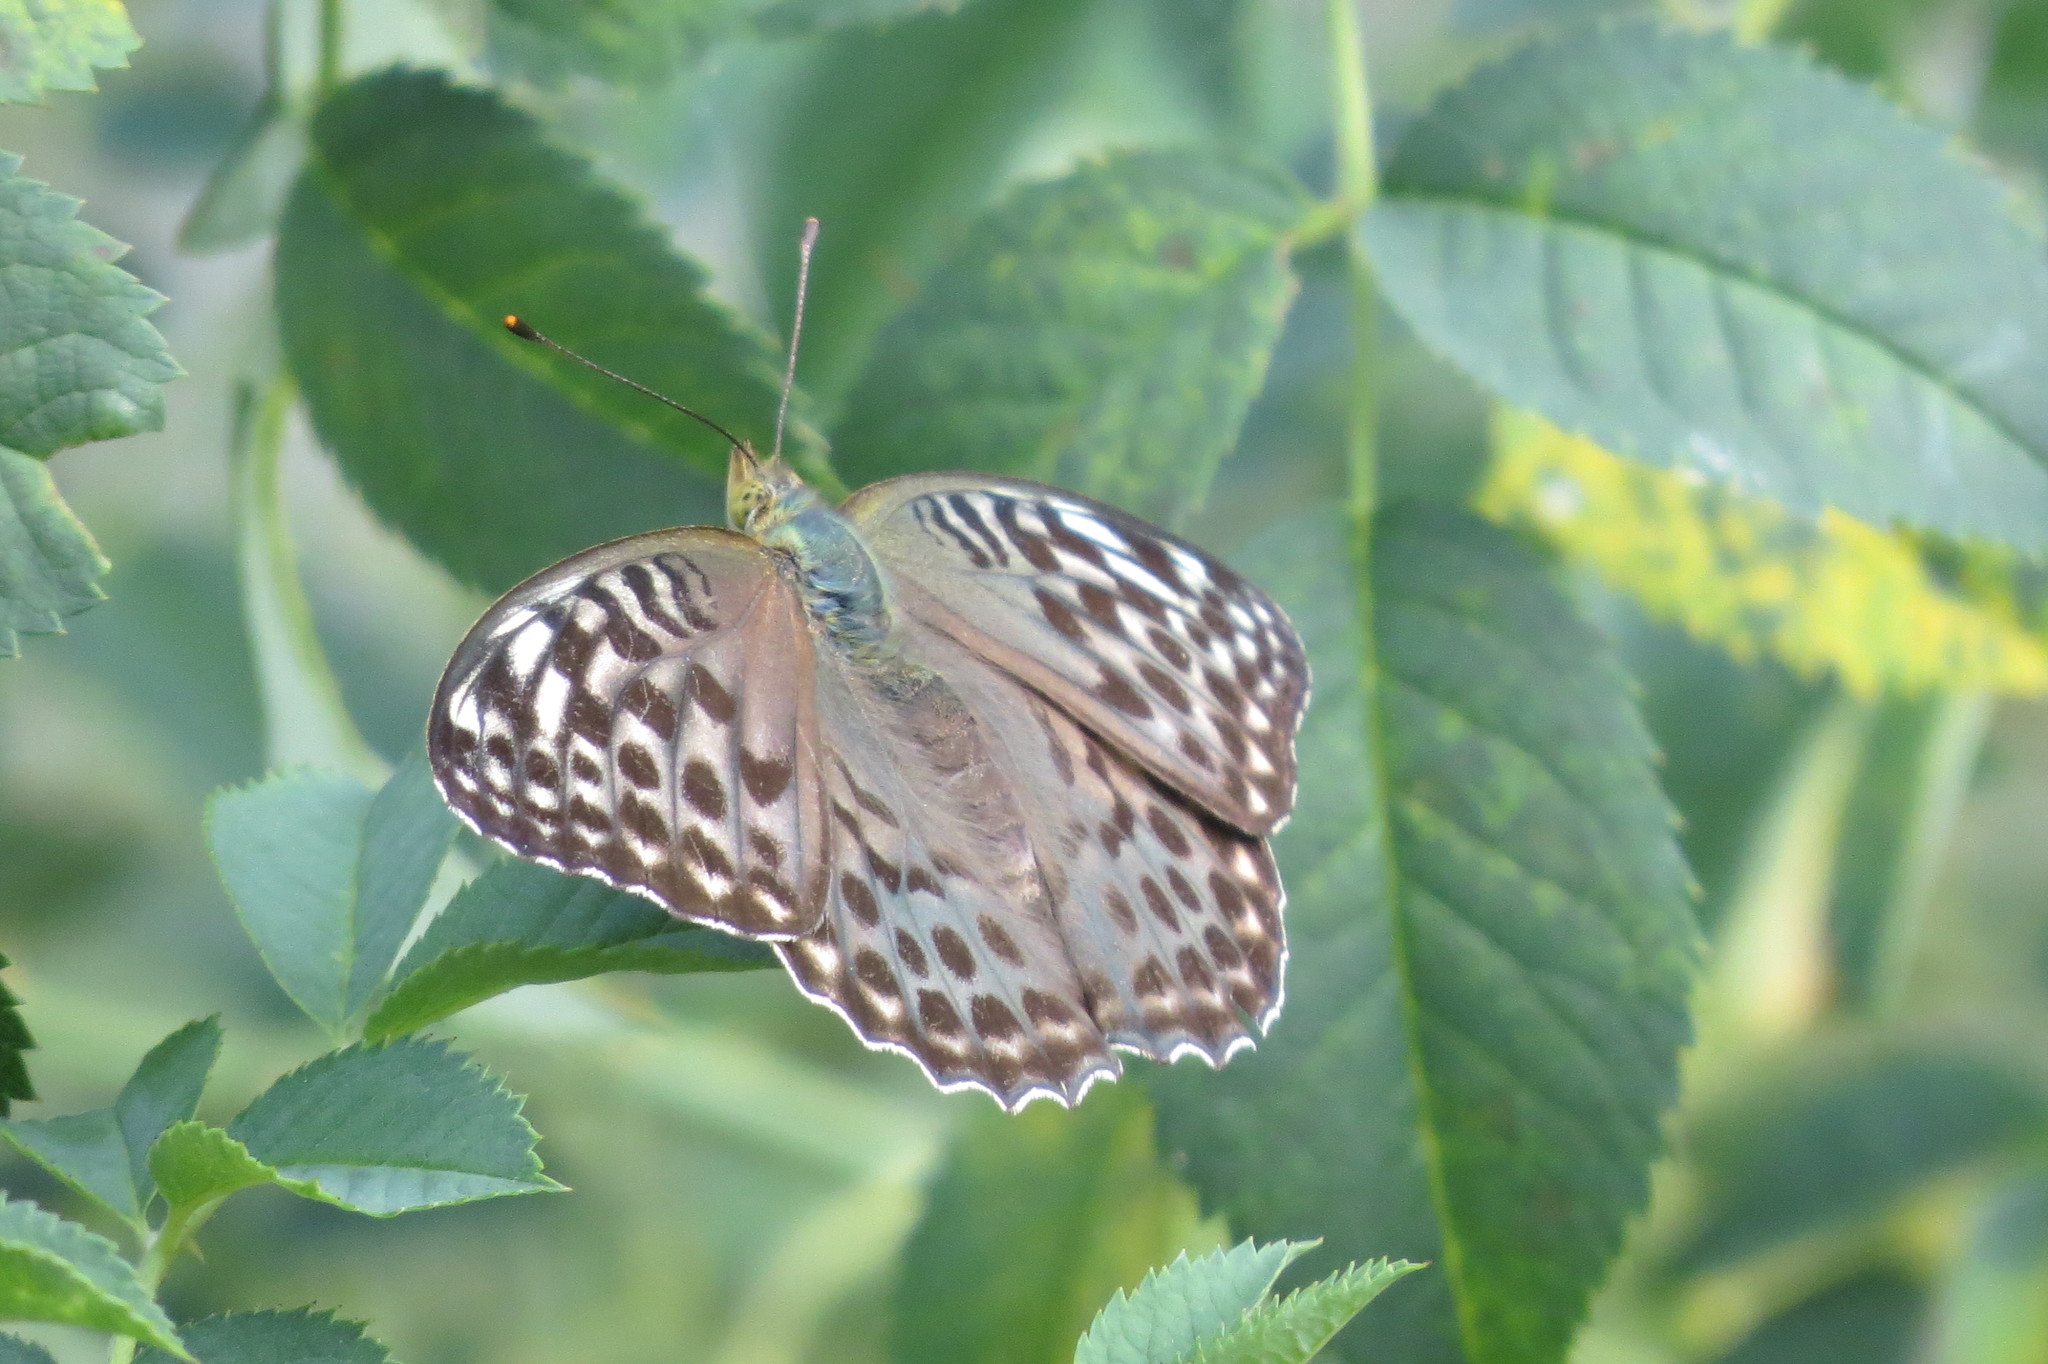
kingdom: Animalia
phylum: Arthropoda
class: Insecta
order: Lepidoptera
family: Nymphalidae
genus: Argynnis
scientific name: Argynnis paphia
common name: Silver-washed fritillary
